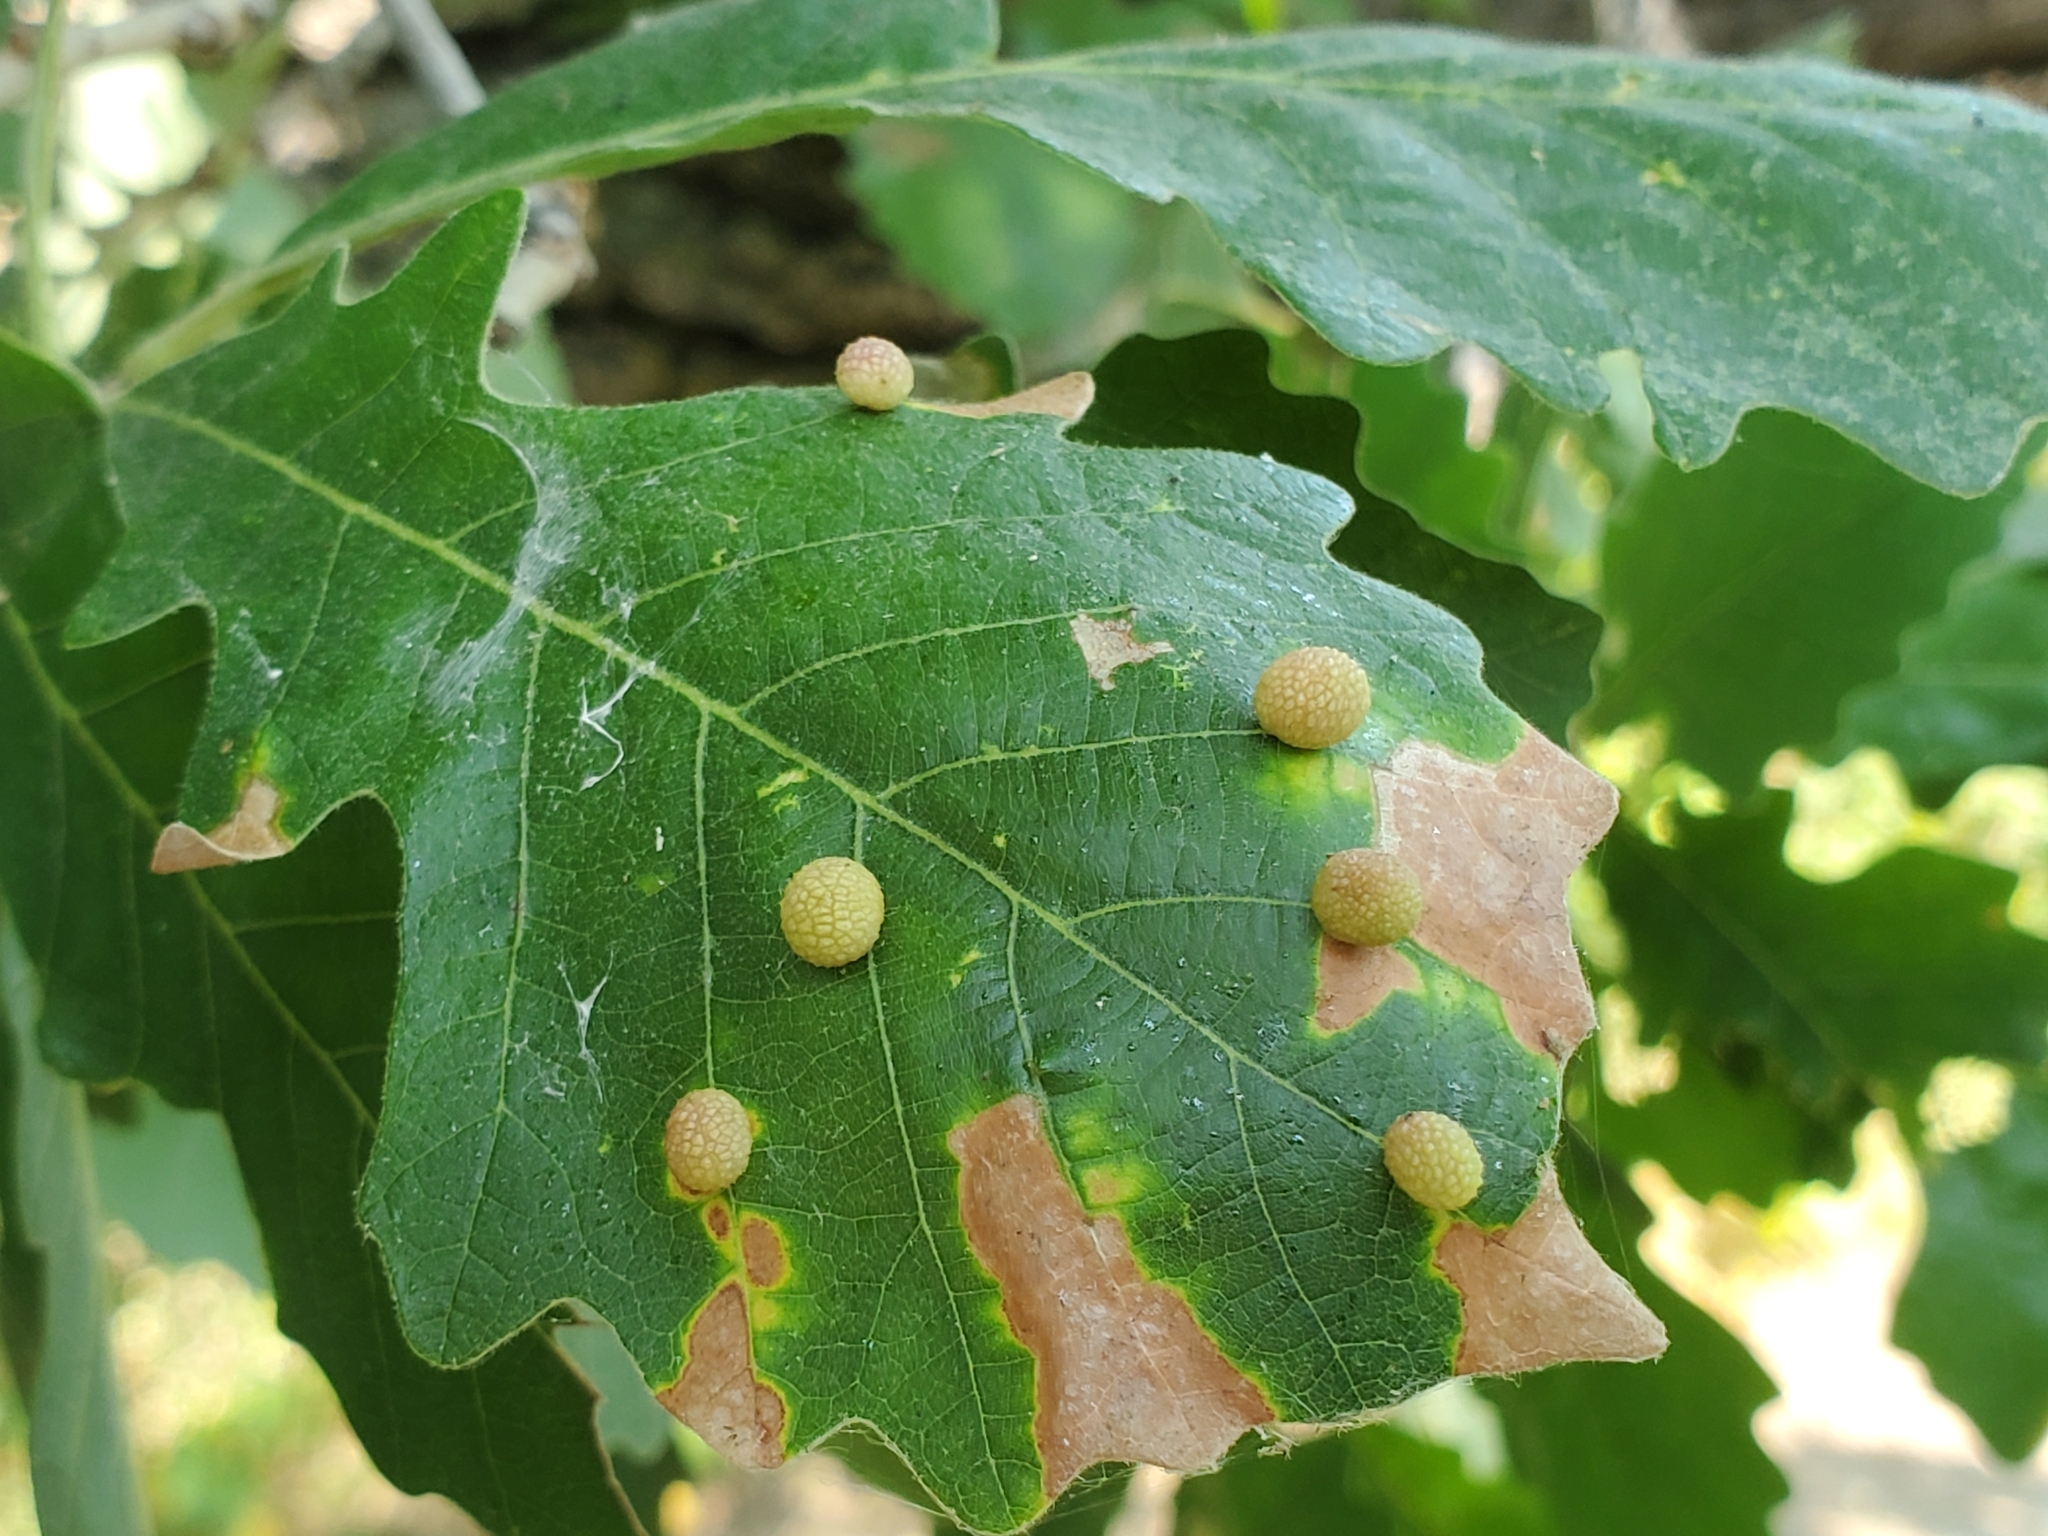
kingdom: Animalia
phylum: Arthropoda
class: Insecta
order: Hymenoptera
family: Cynipidae
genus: Acraspis
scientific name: Acraspis quercushirta
